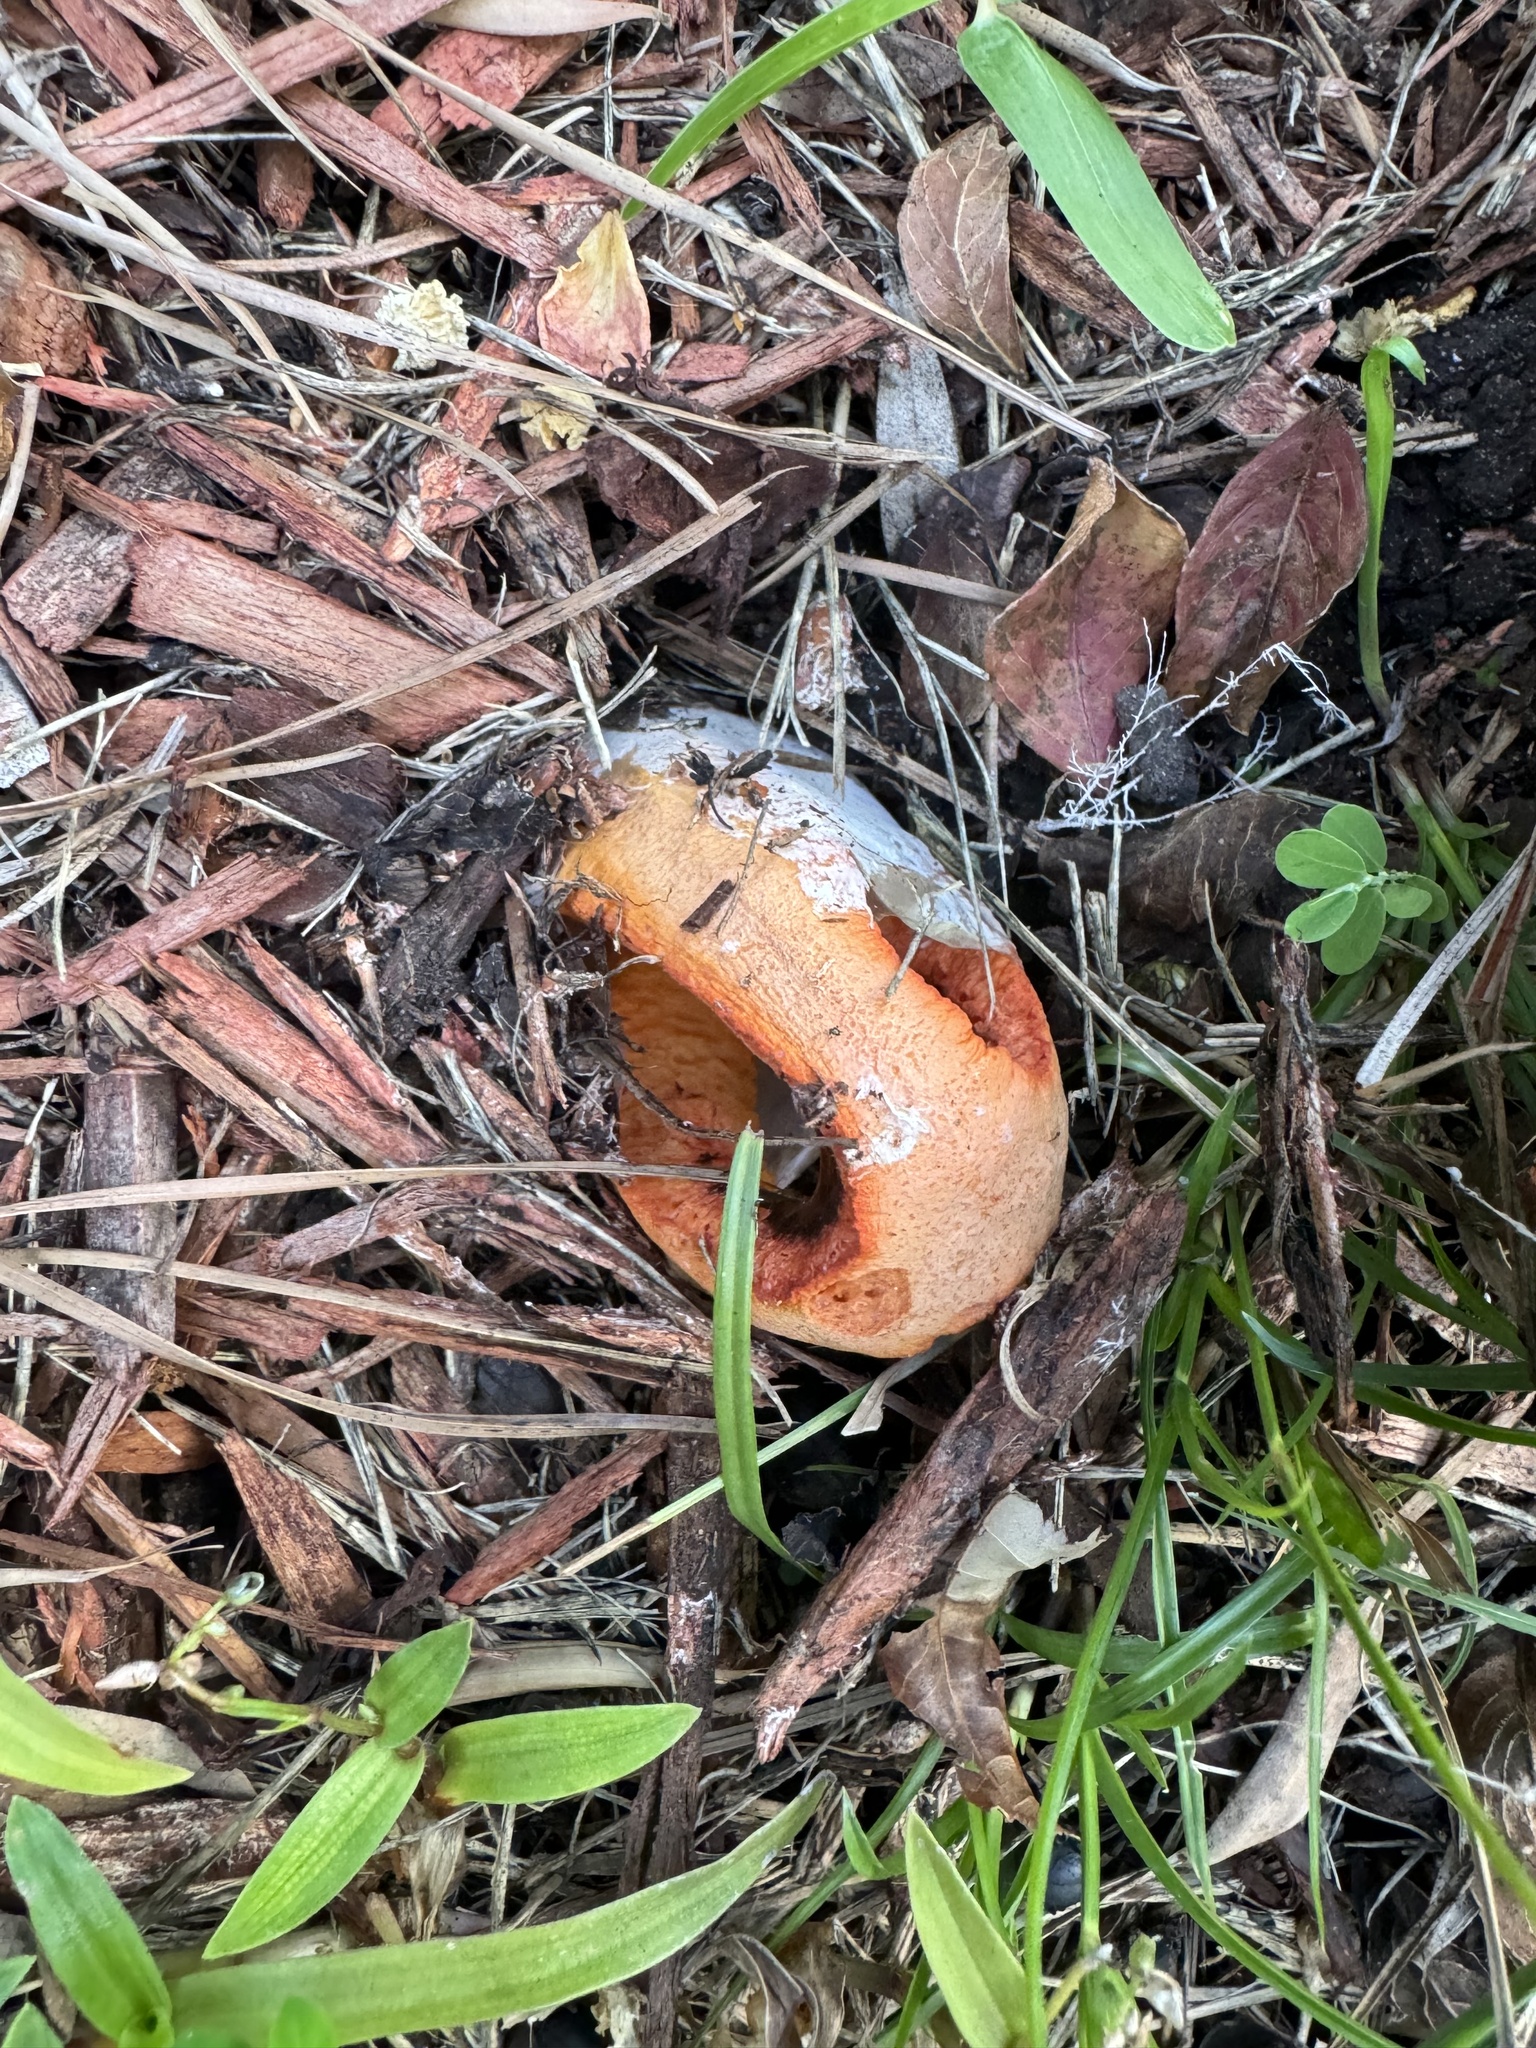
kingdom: Fungi
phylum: Basidiomycota
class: Agaricomycetes
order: Phallales
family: Phallaceae
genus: Clathrus
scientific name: Clathrus columnatus
